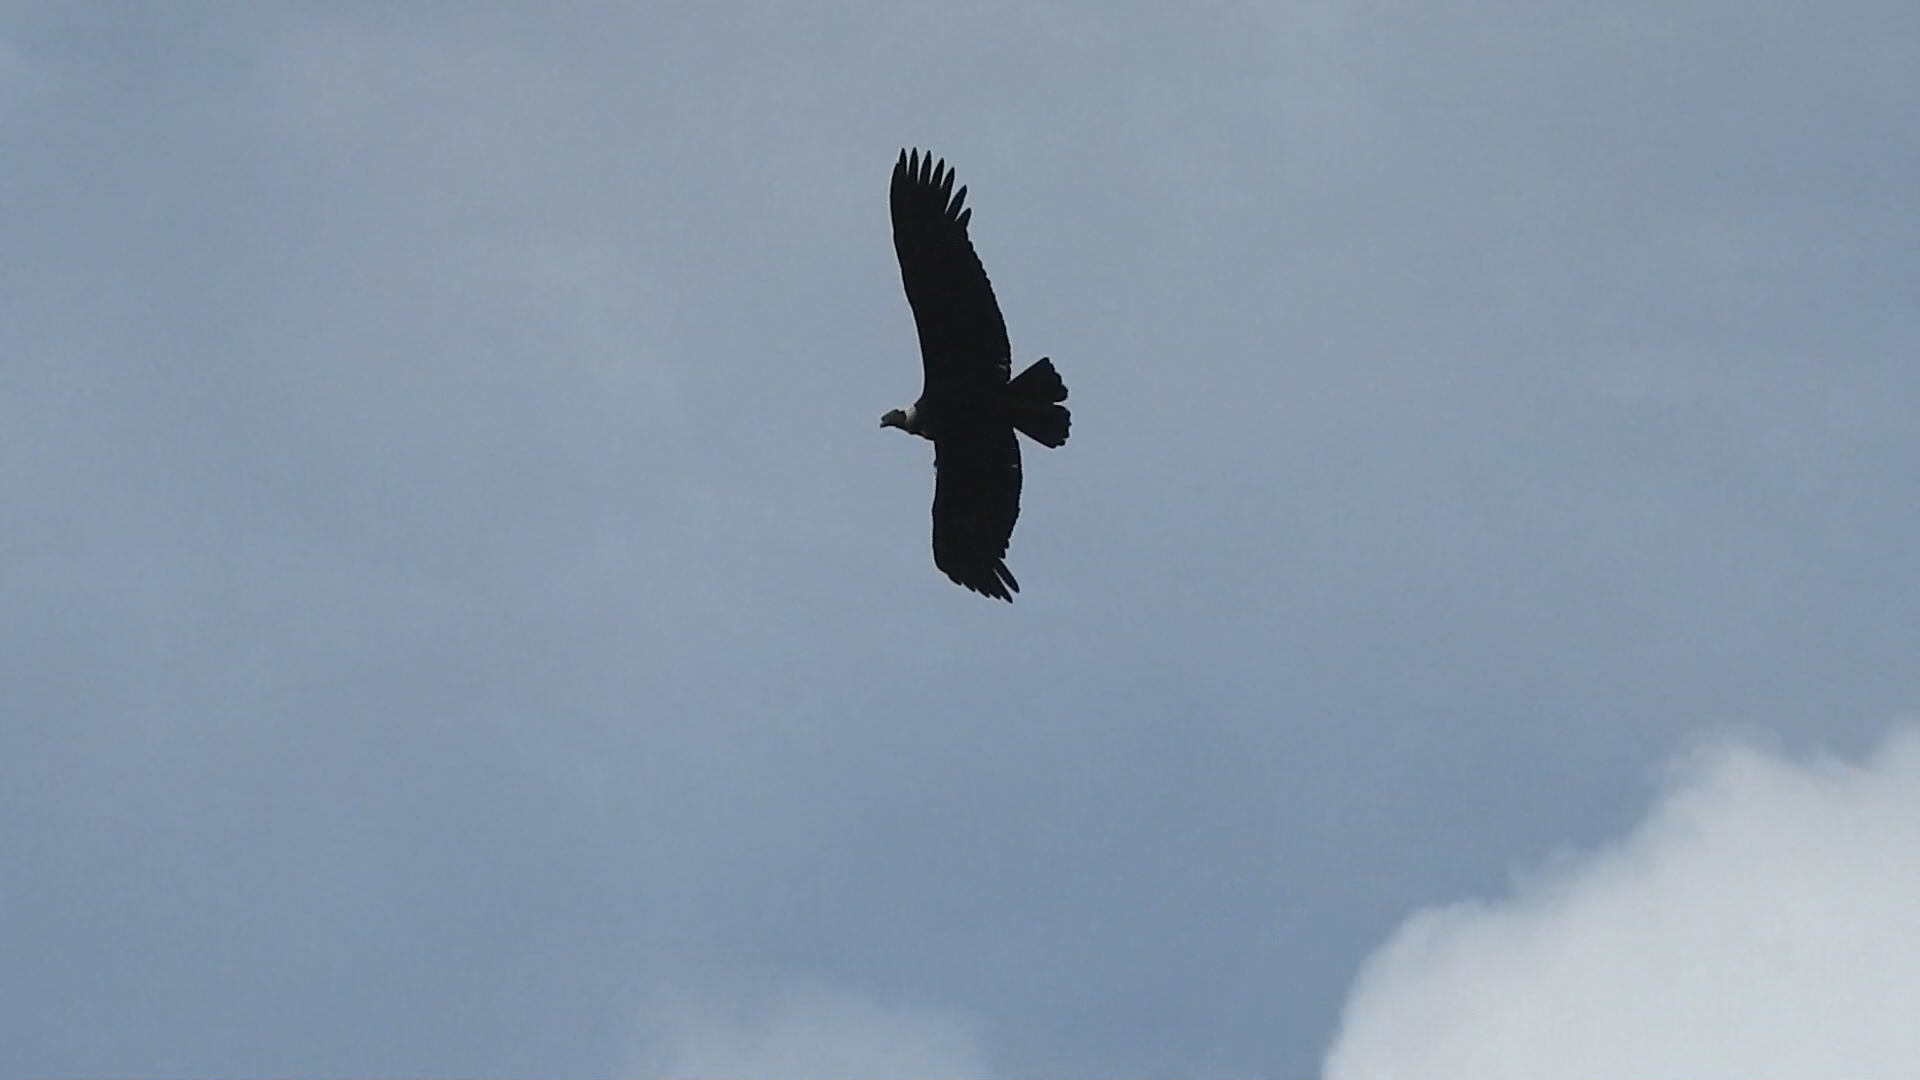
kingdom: Animalia
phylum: Chordata
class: Aves
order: Accipitriformes
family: Cathartidae
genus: Vultur
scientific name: Vultur gryphus
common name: Andean condor
